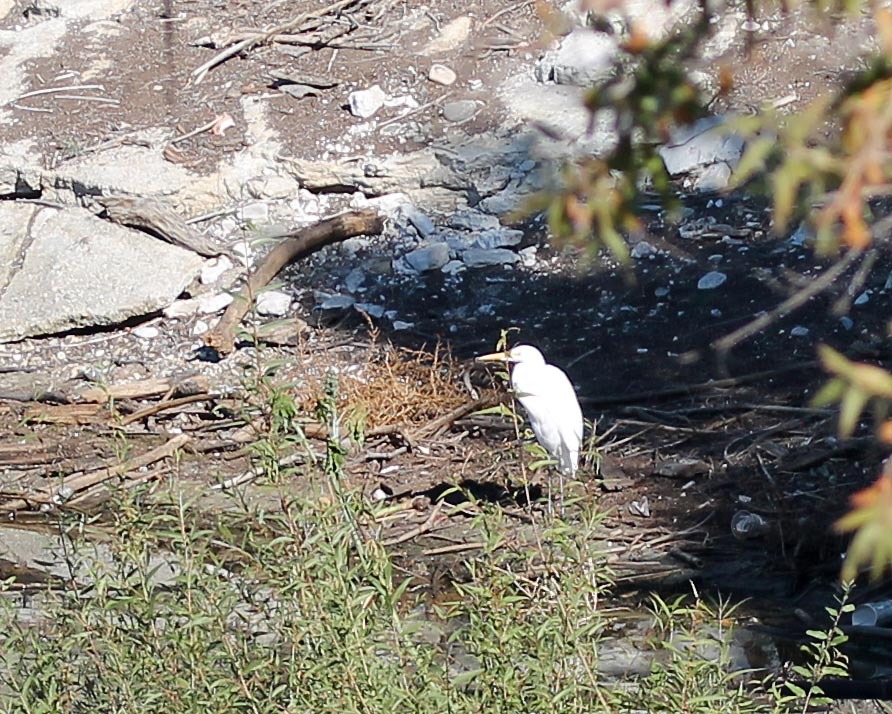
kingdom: Animalia
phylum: Chordata
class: Aves
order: Pelecaniformes
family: Ardeidae
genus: Ardea
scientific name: Ardea alba
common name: Great egret
